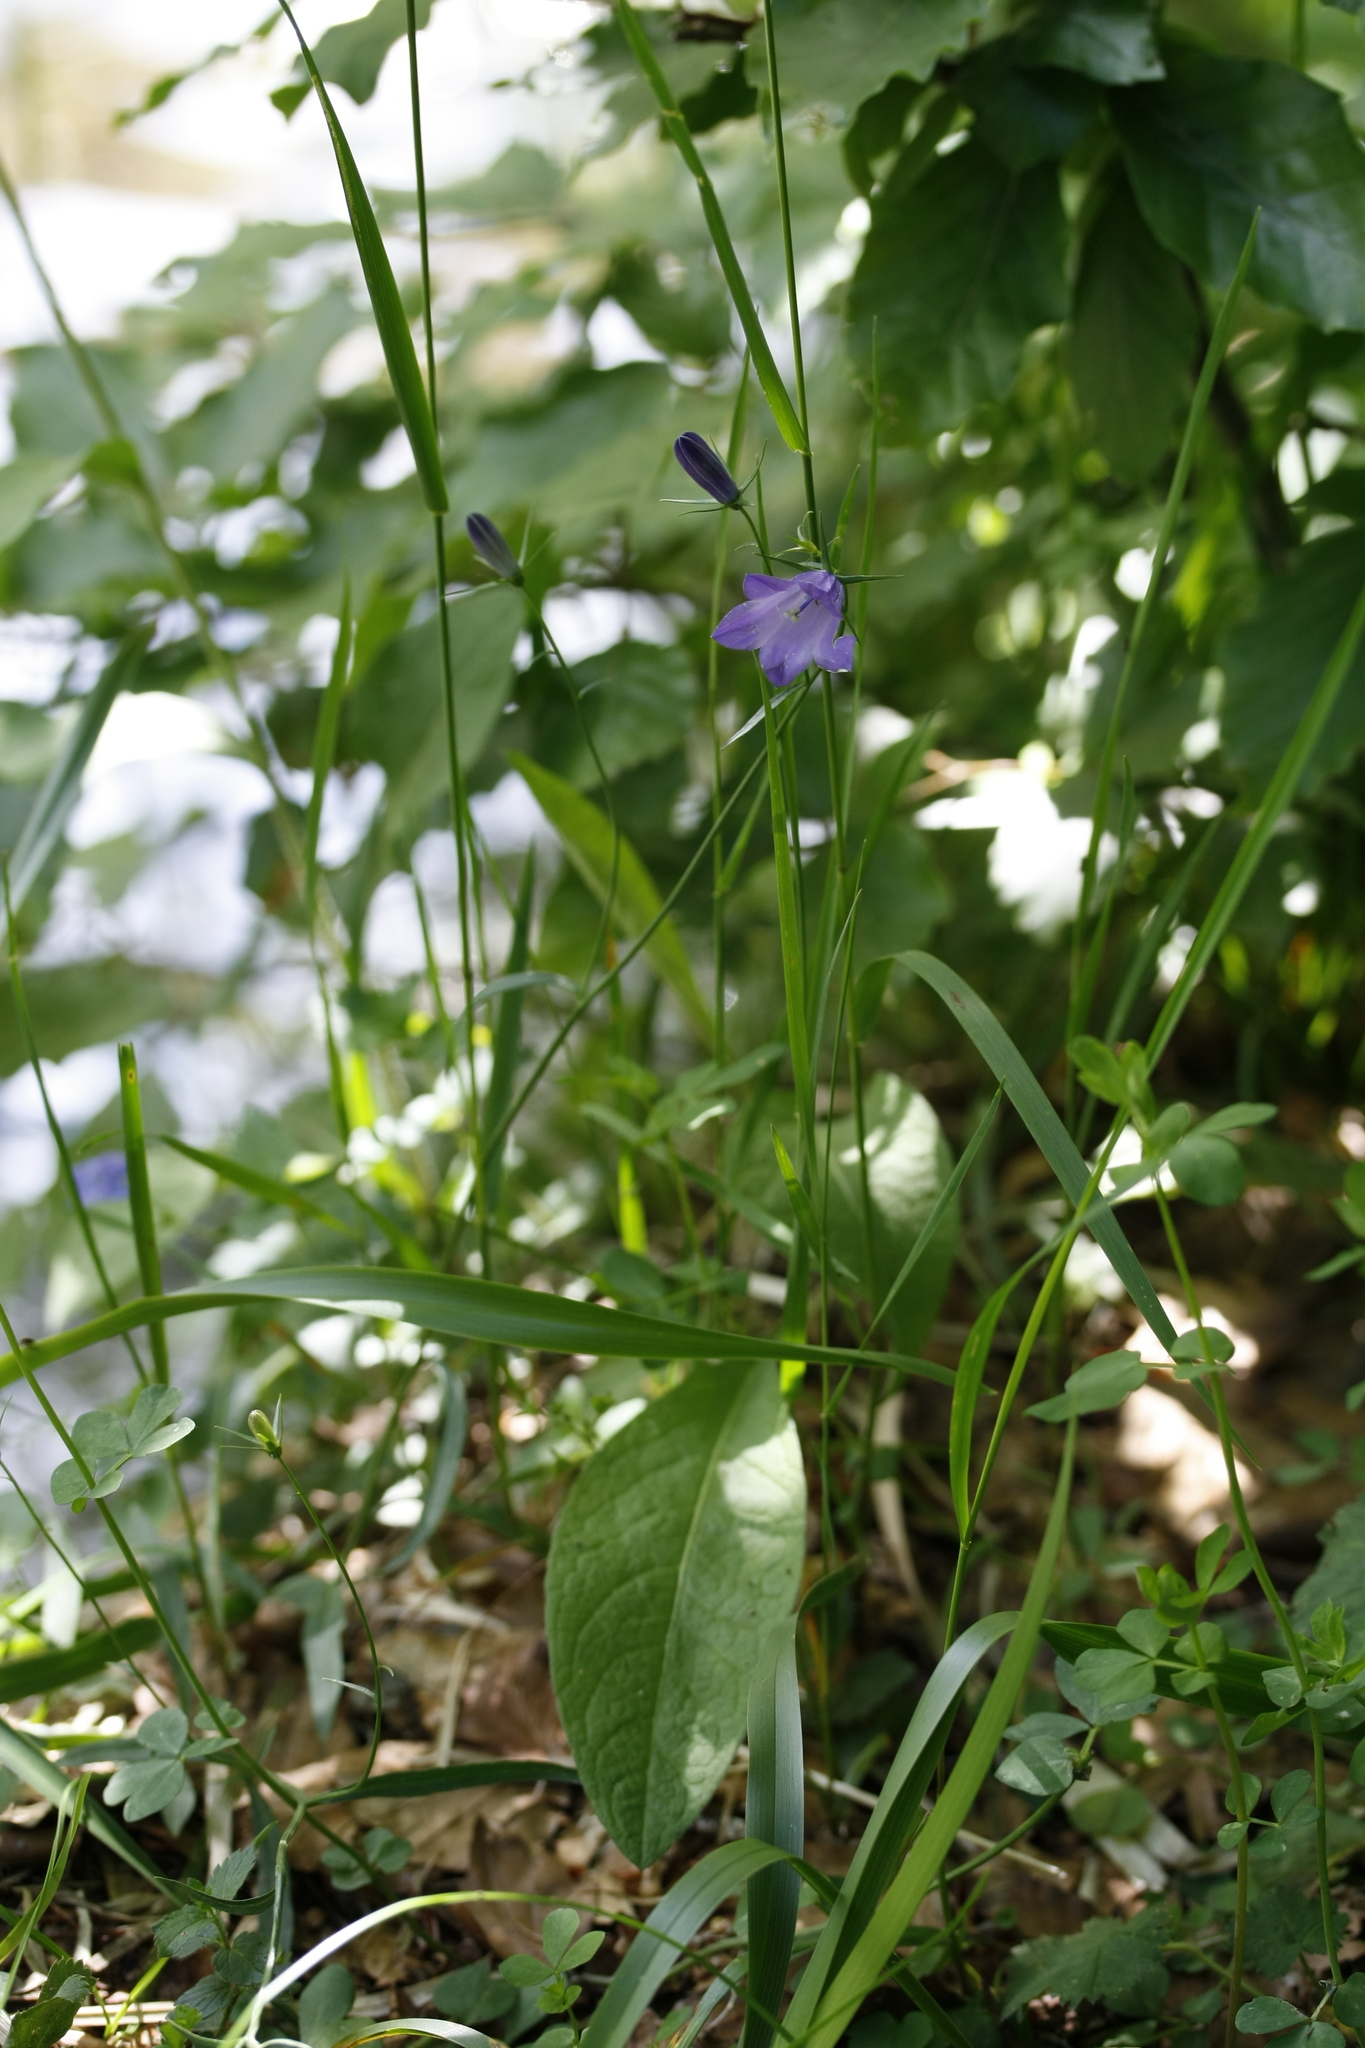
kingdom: Plantae
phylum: Tracheophyta
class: Magnoliopsida
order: Asterales
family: Campanulaceae
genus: Campanula
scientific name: Campanula rotundifolia
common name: Harebell
